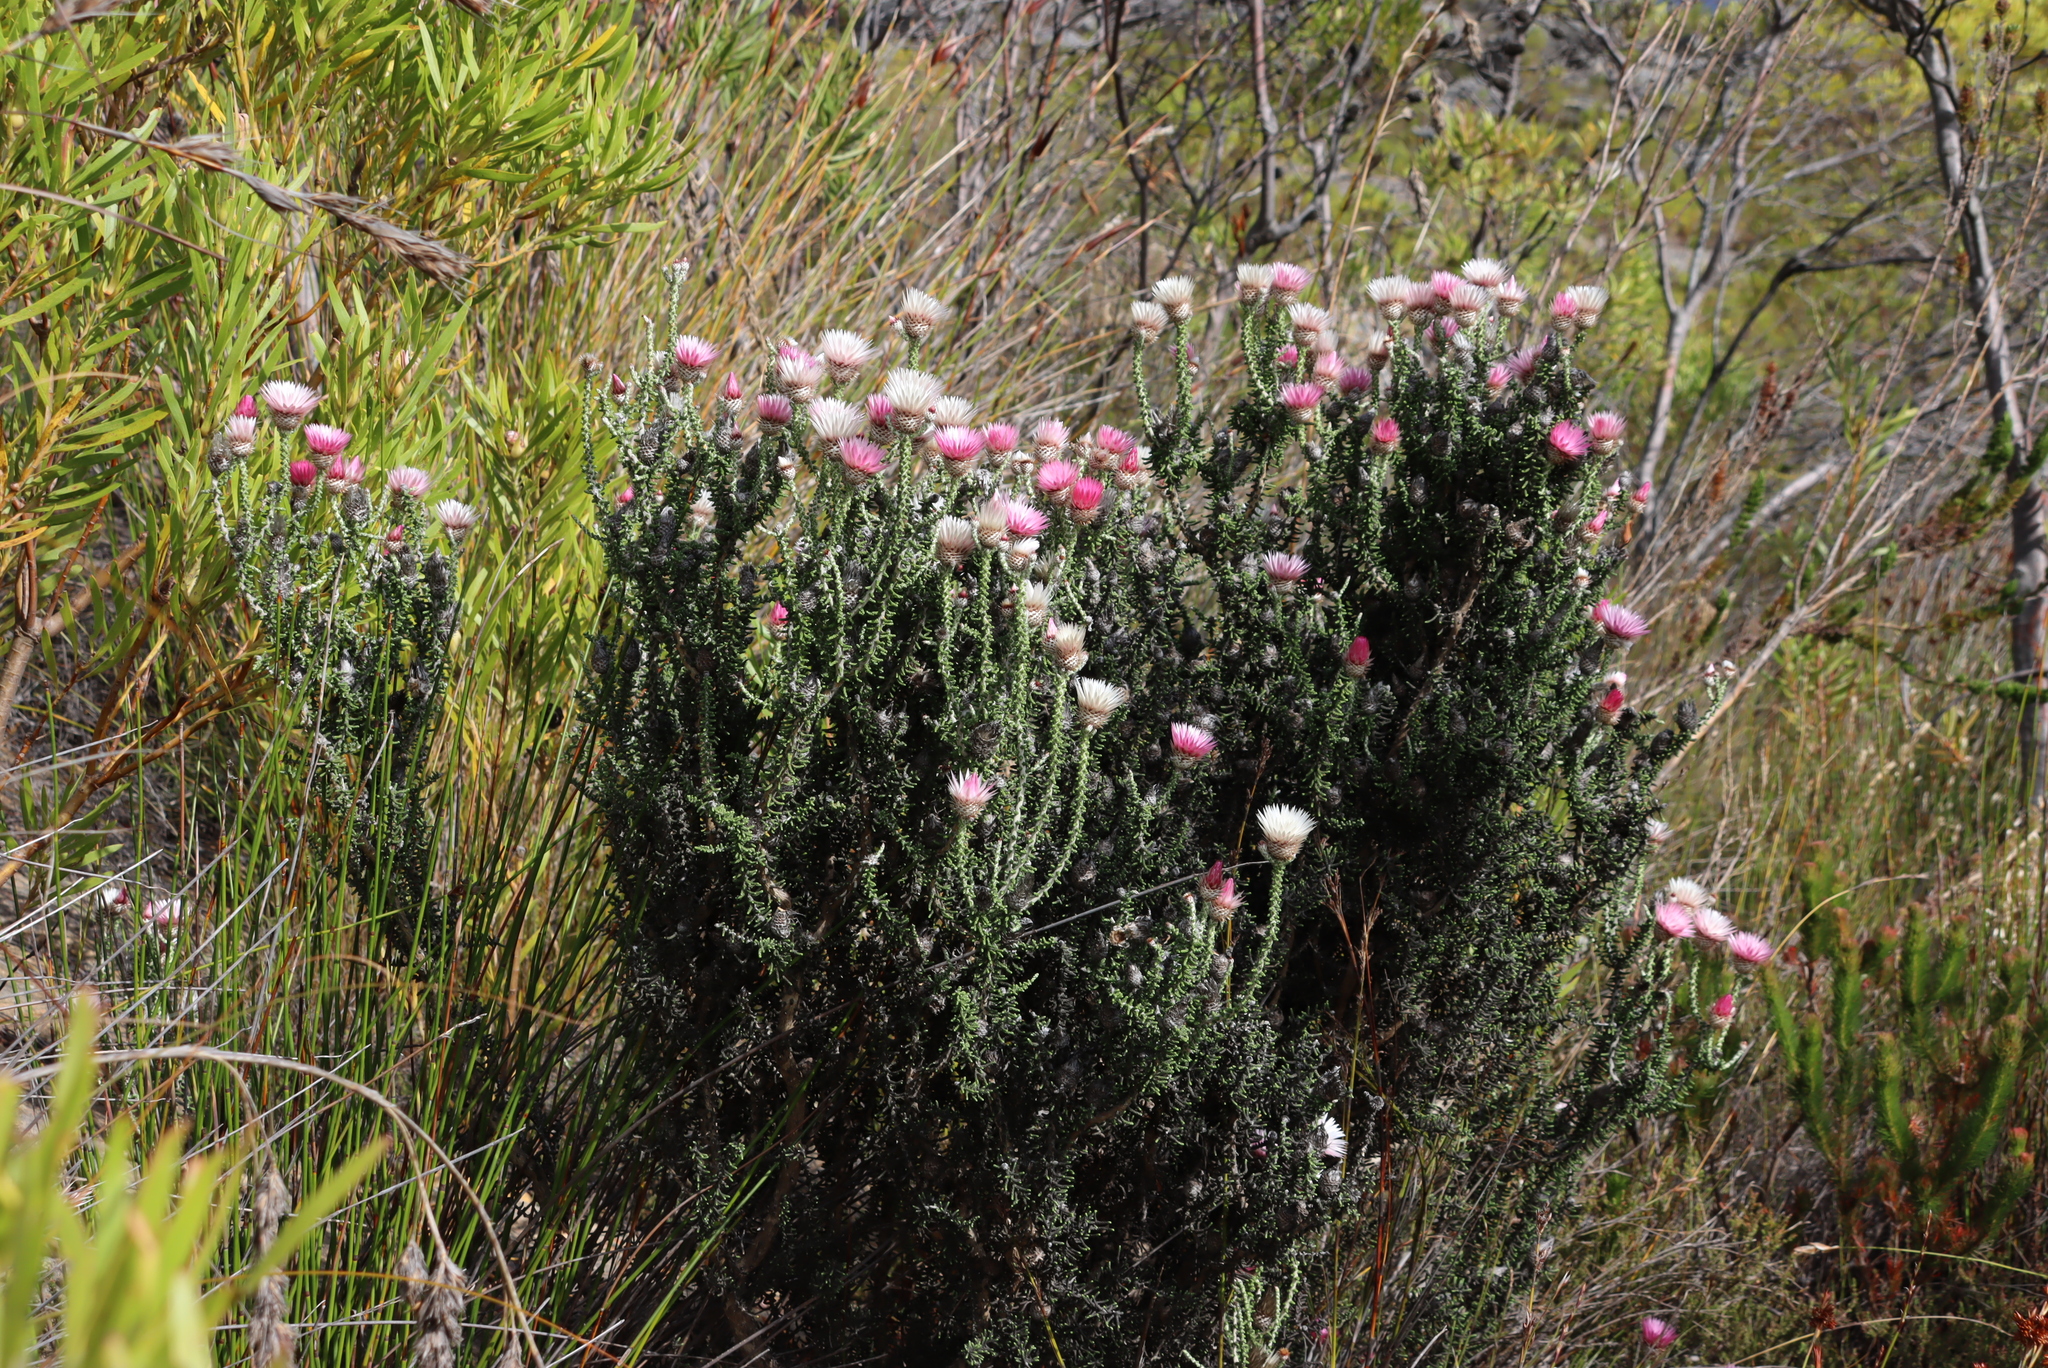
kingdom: Plantae
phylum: Tracheophyta
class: Magnoliopsida
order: Asterales
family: Asteraceae
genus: Phaenocoma
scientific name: Phaenocoma prolifera
